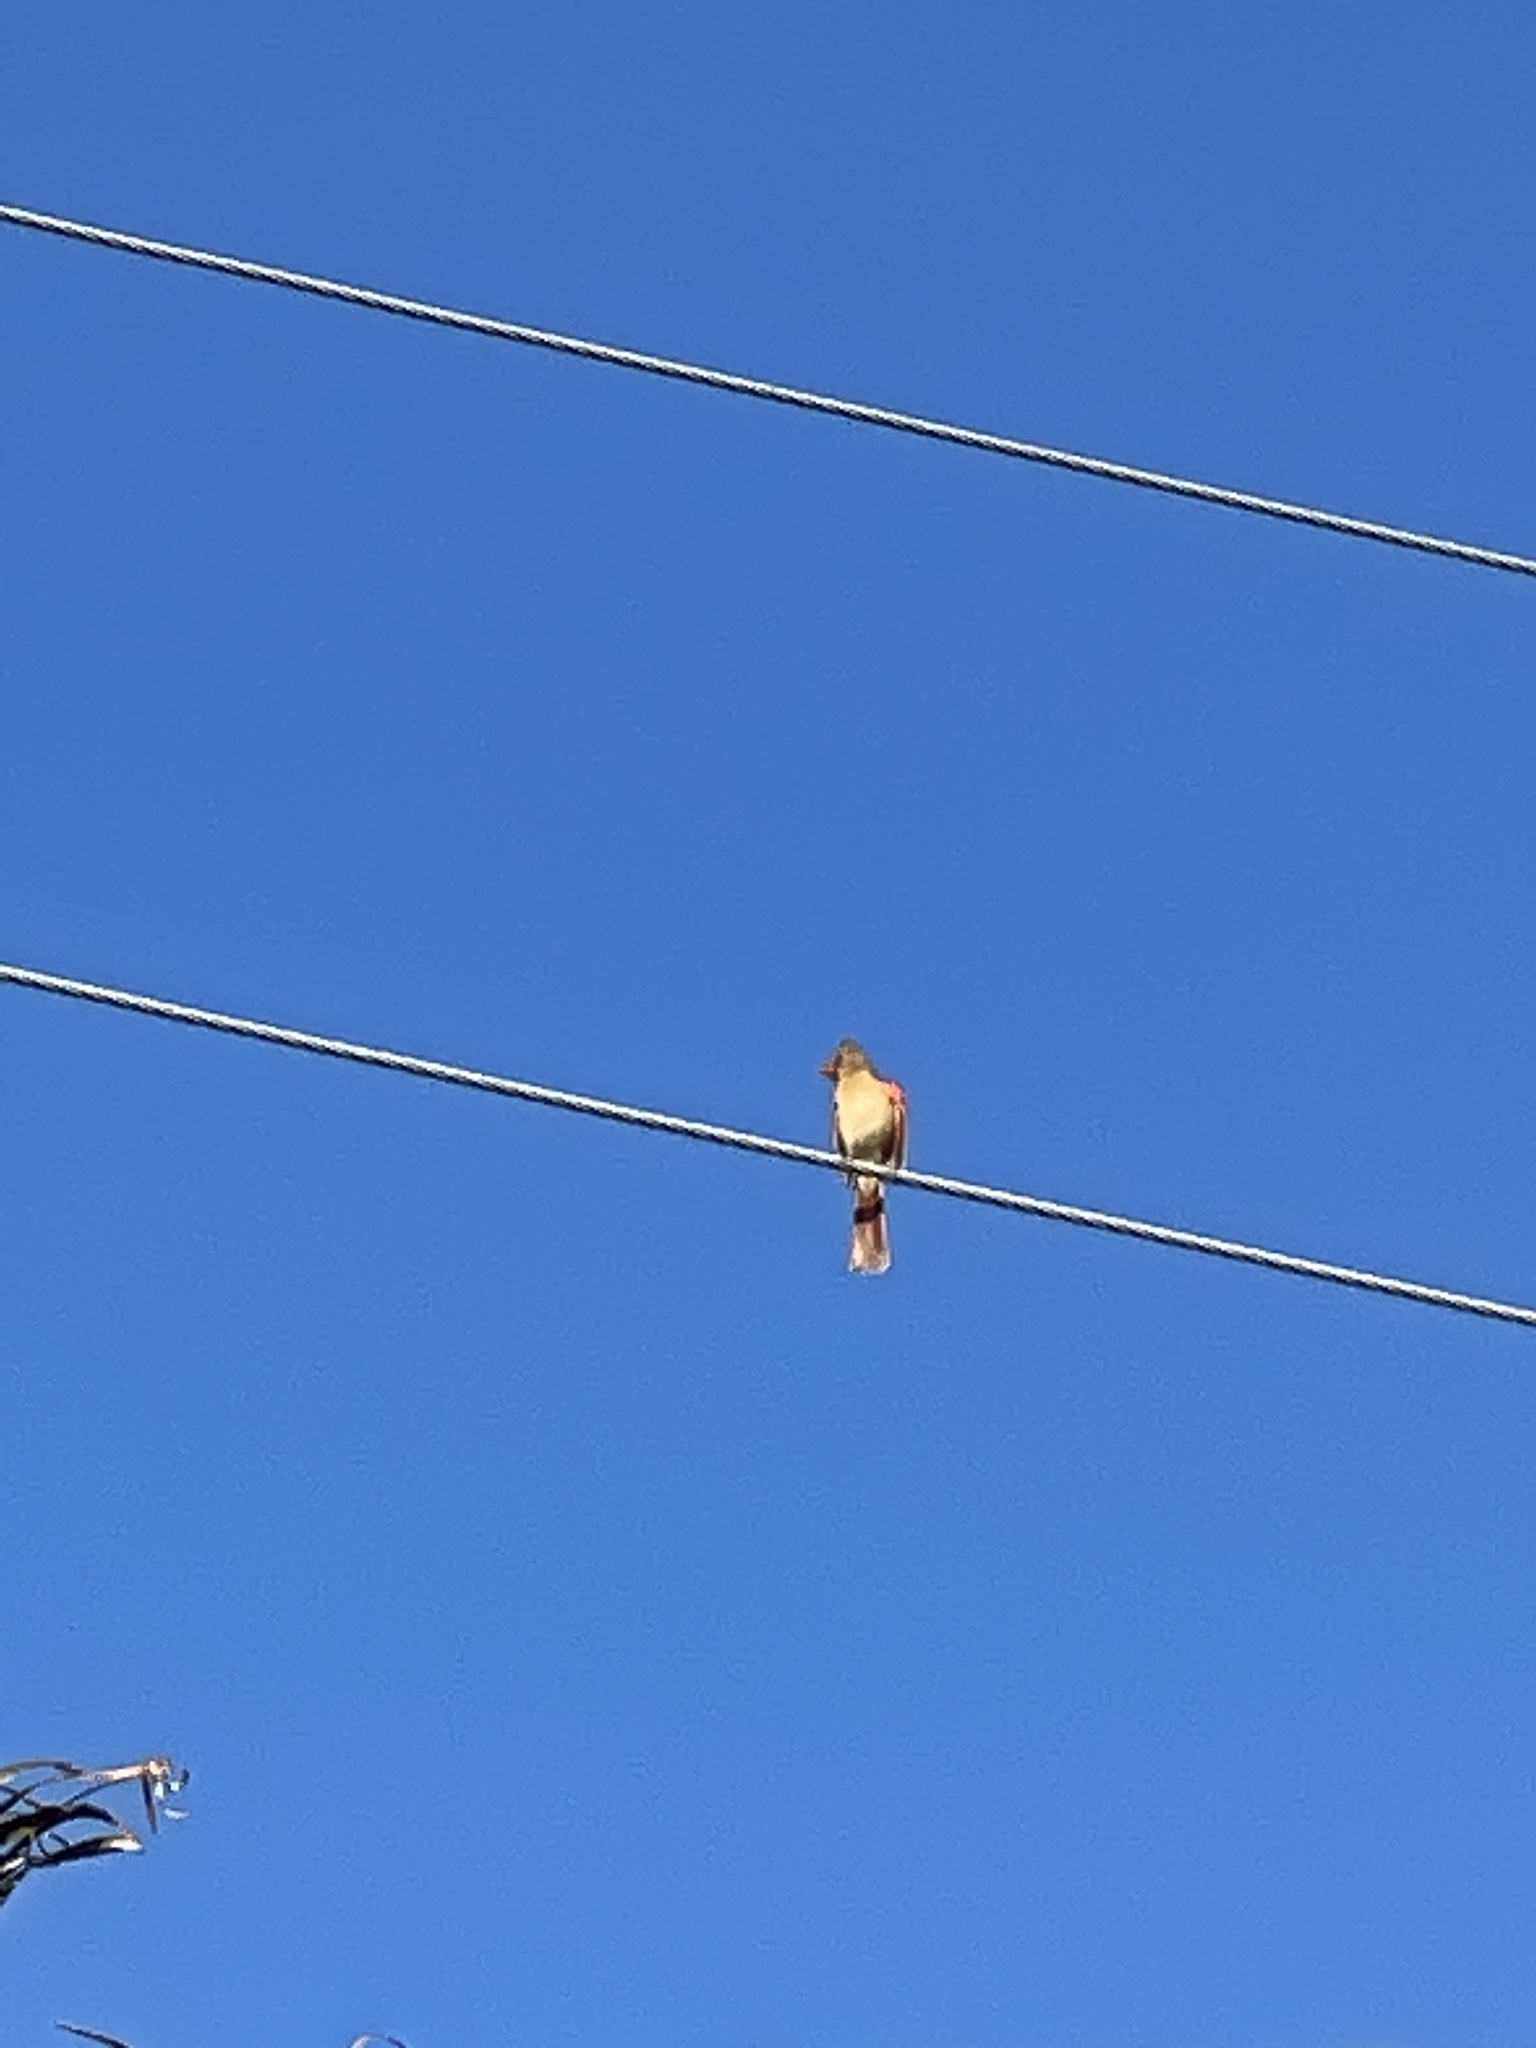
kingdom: Animalia
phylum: Chordata
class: Aves
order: Passeriformes
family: Cardinalidae
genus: Cardinalis
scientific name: Cardinalis cardinalis
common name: Northern cardinal
